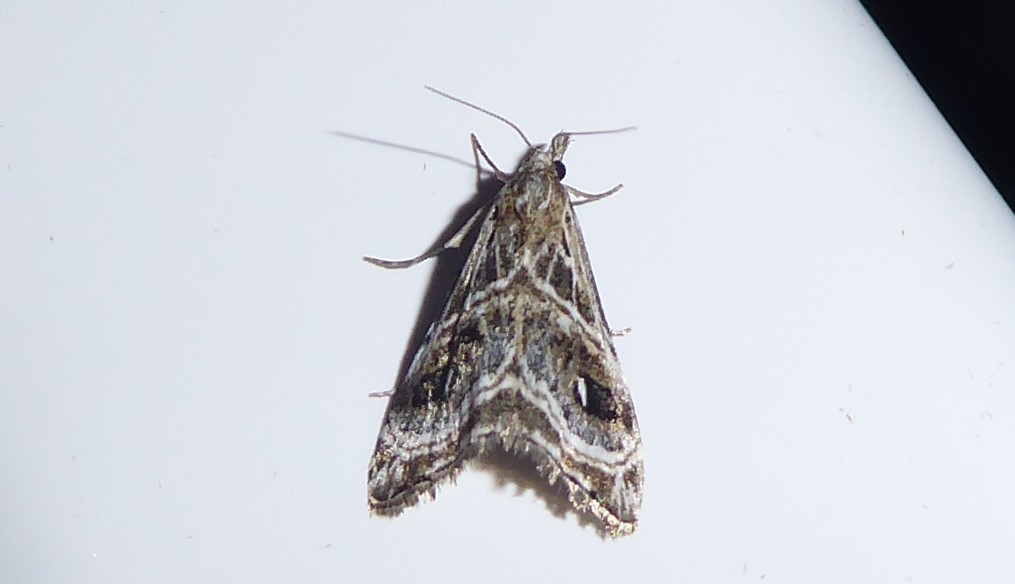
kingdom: Animalia
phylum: Arthropoda
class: Insecta
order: Lepidoptera
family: Crambidae
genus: Gadira
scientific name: Gadira acerella
